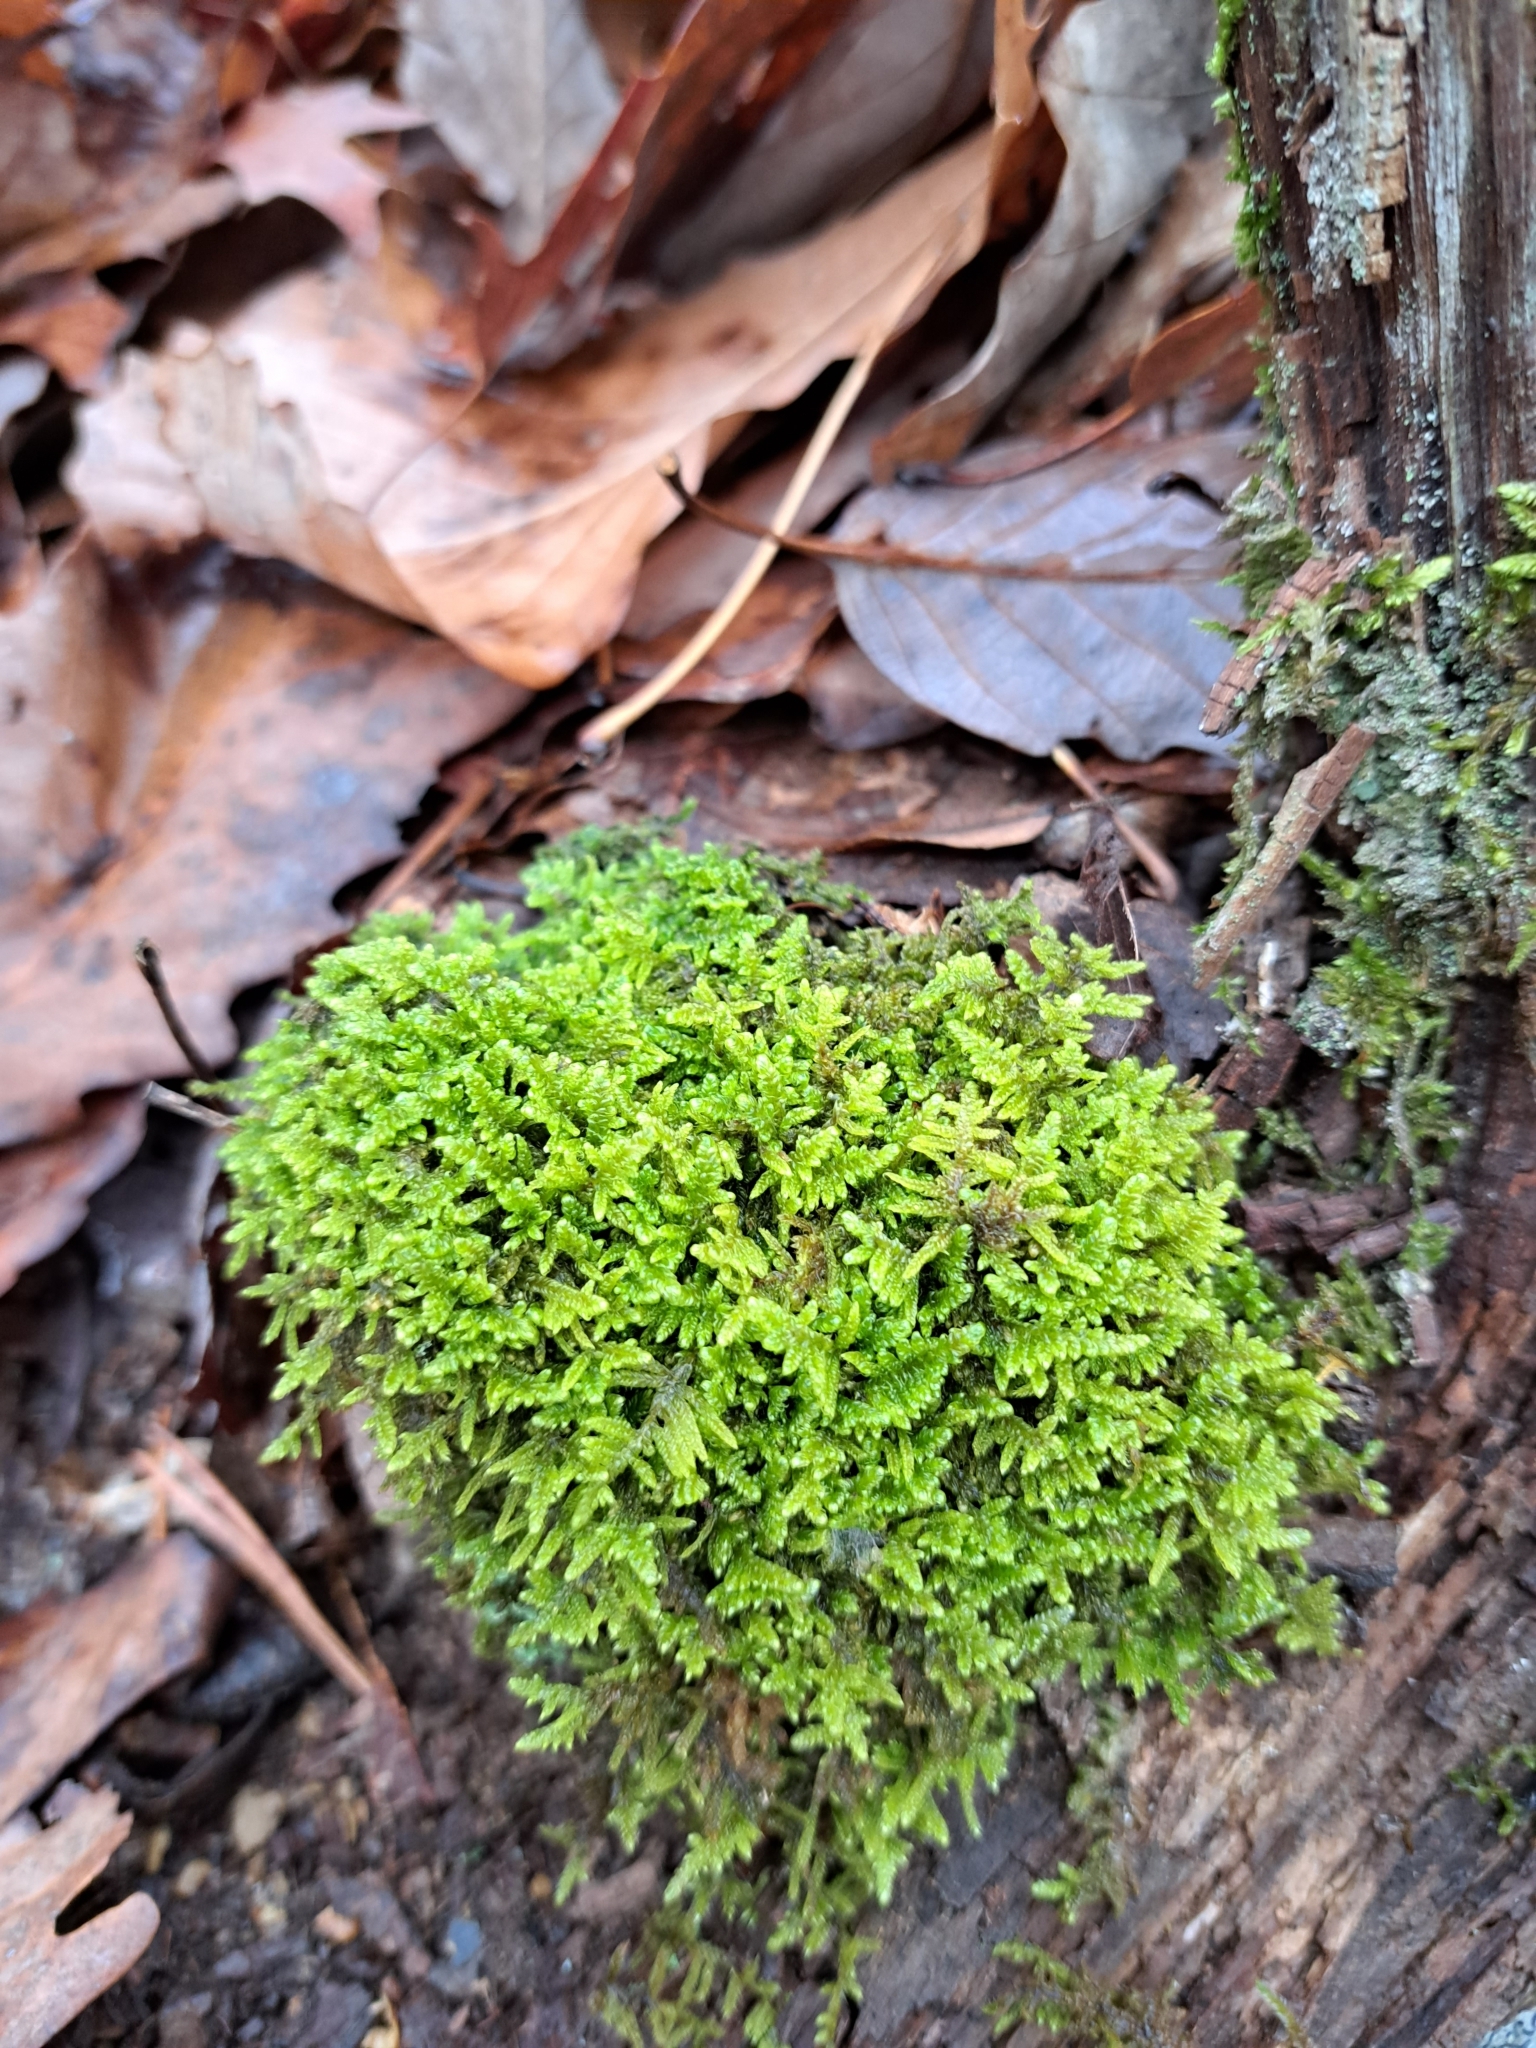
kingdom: Plantae
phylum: Bryophyta
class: Bryopsida
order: Hypnales
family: Callicladiaceae
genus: Callicladium
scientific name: Callicladium imponens
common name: Brocade moss
